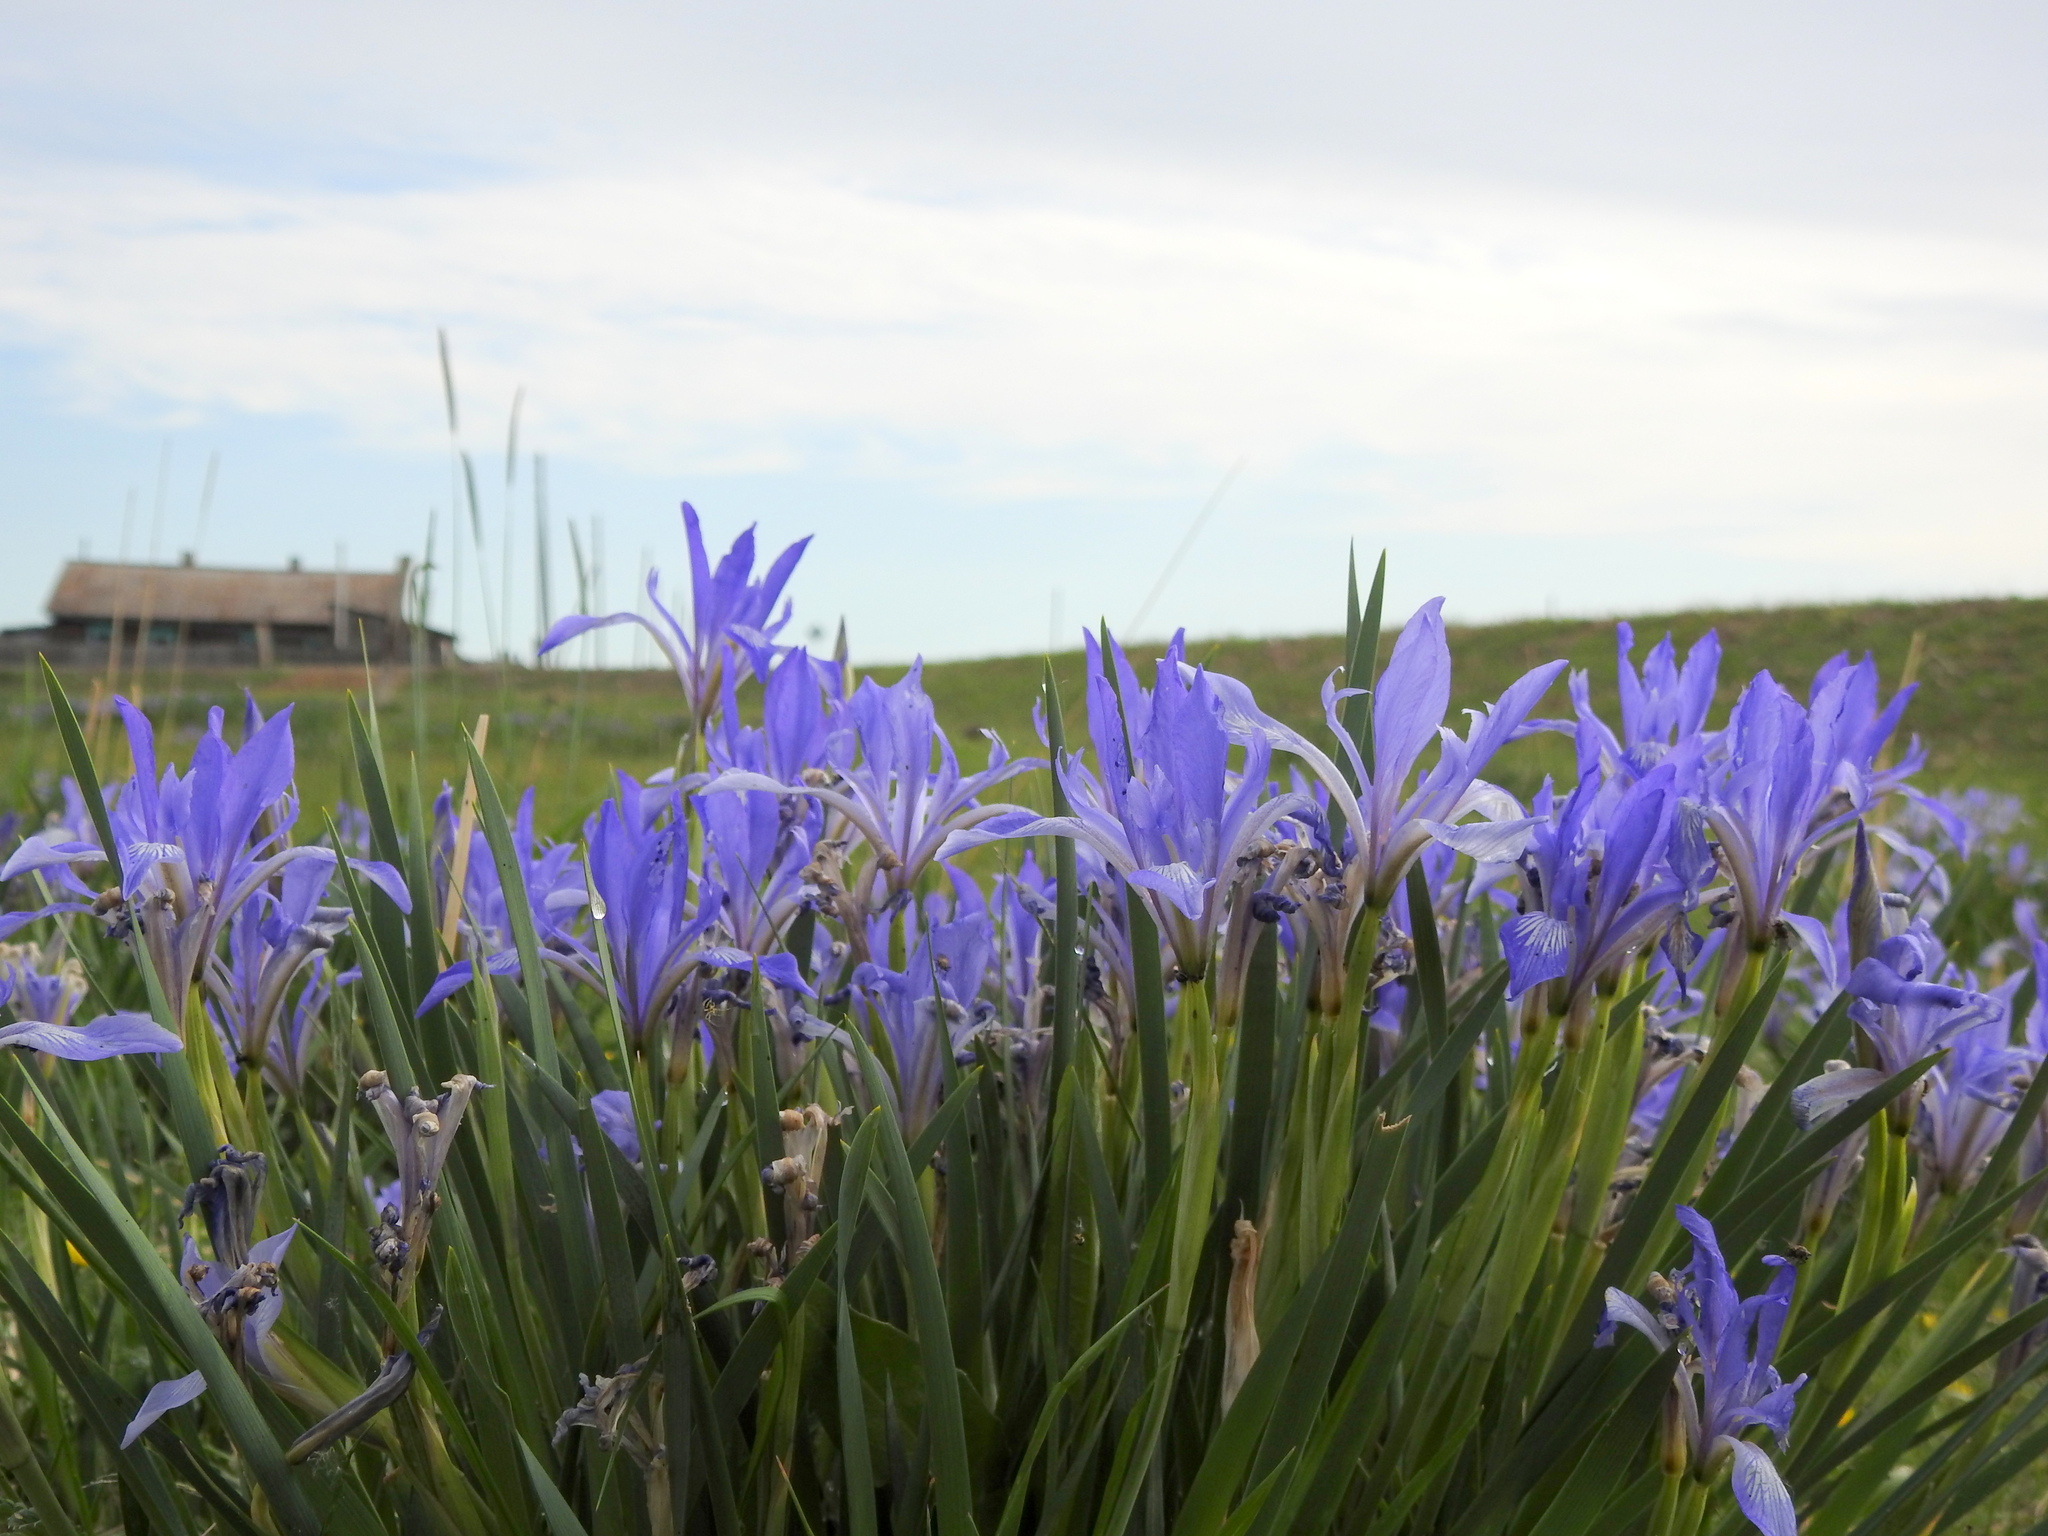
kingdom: Plantae
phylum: Tracheophyta
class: Liliopsida
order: Asparagales
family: Iridaceae
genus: Iris
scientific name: Iris lactea
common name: White-flower chinese iris
